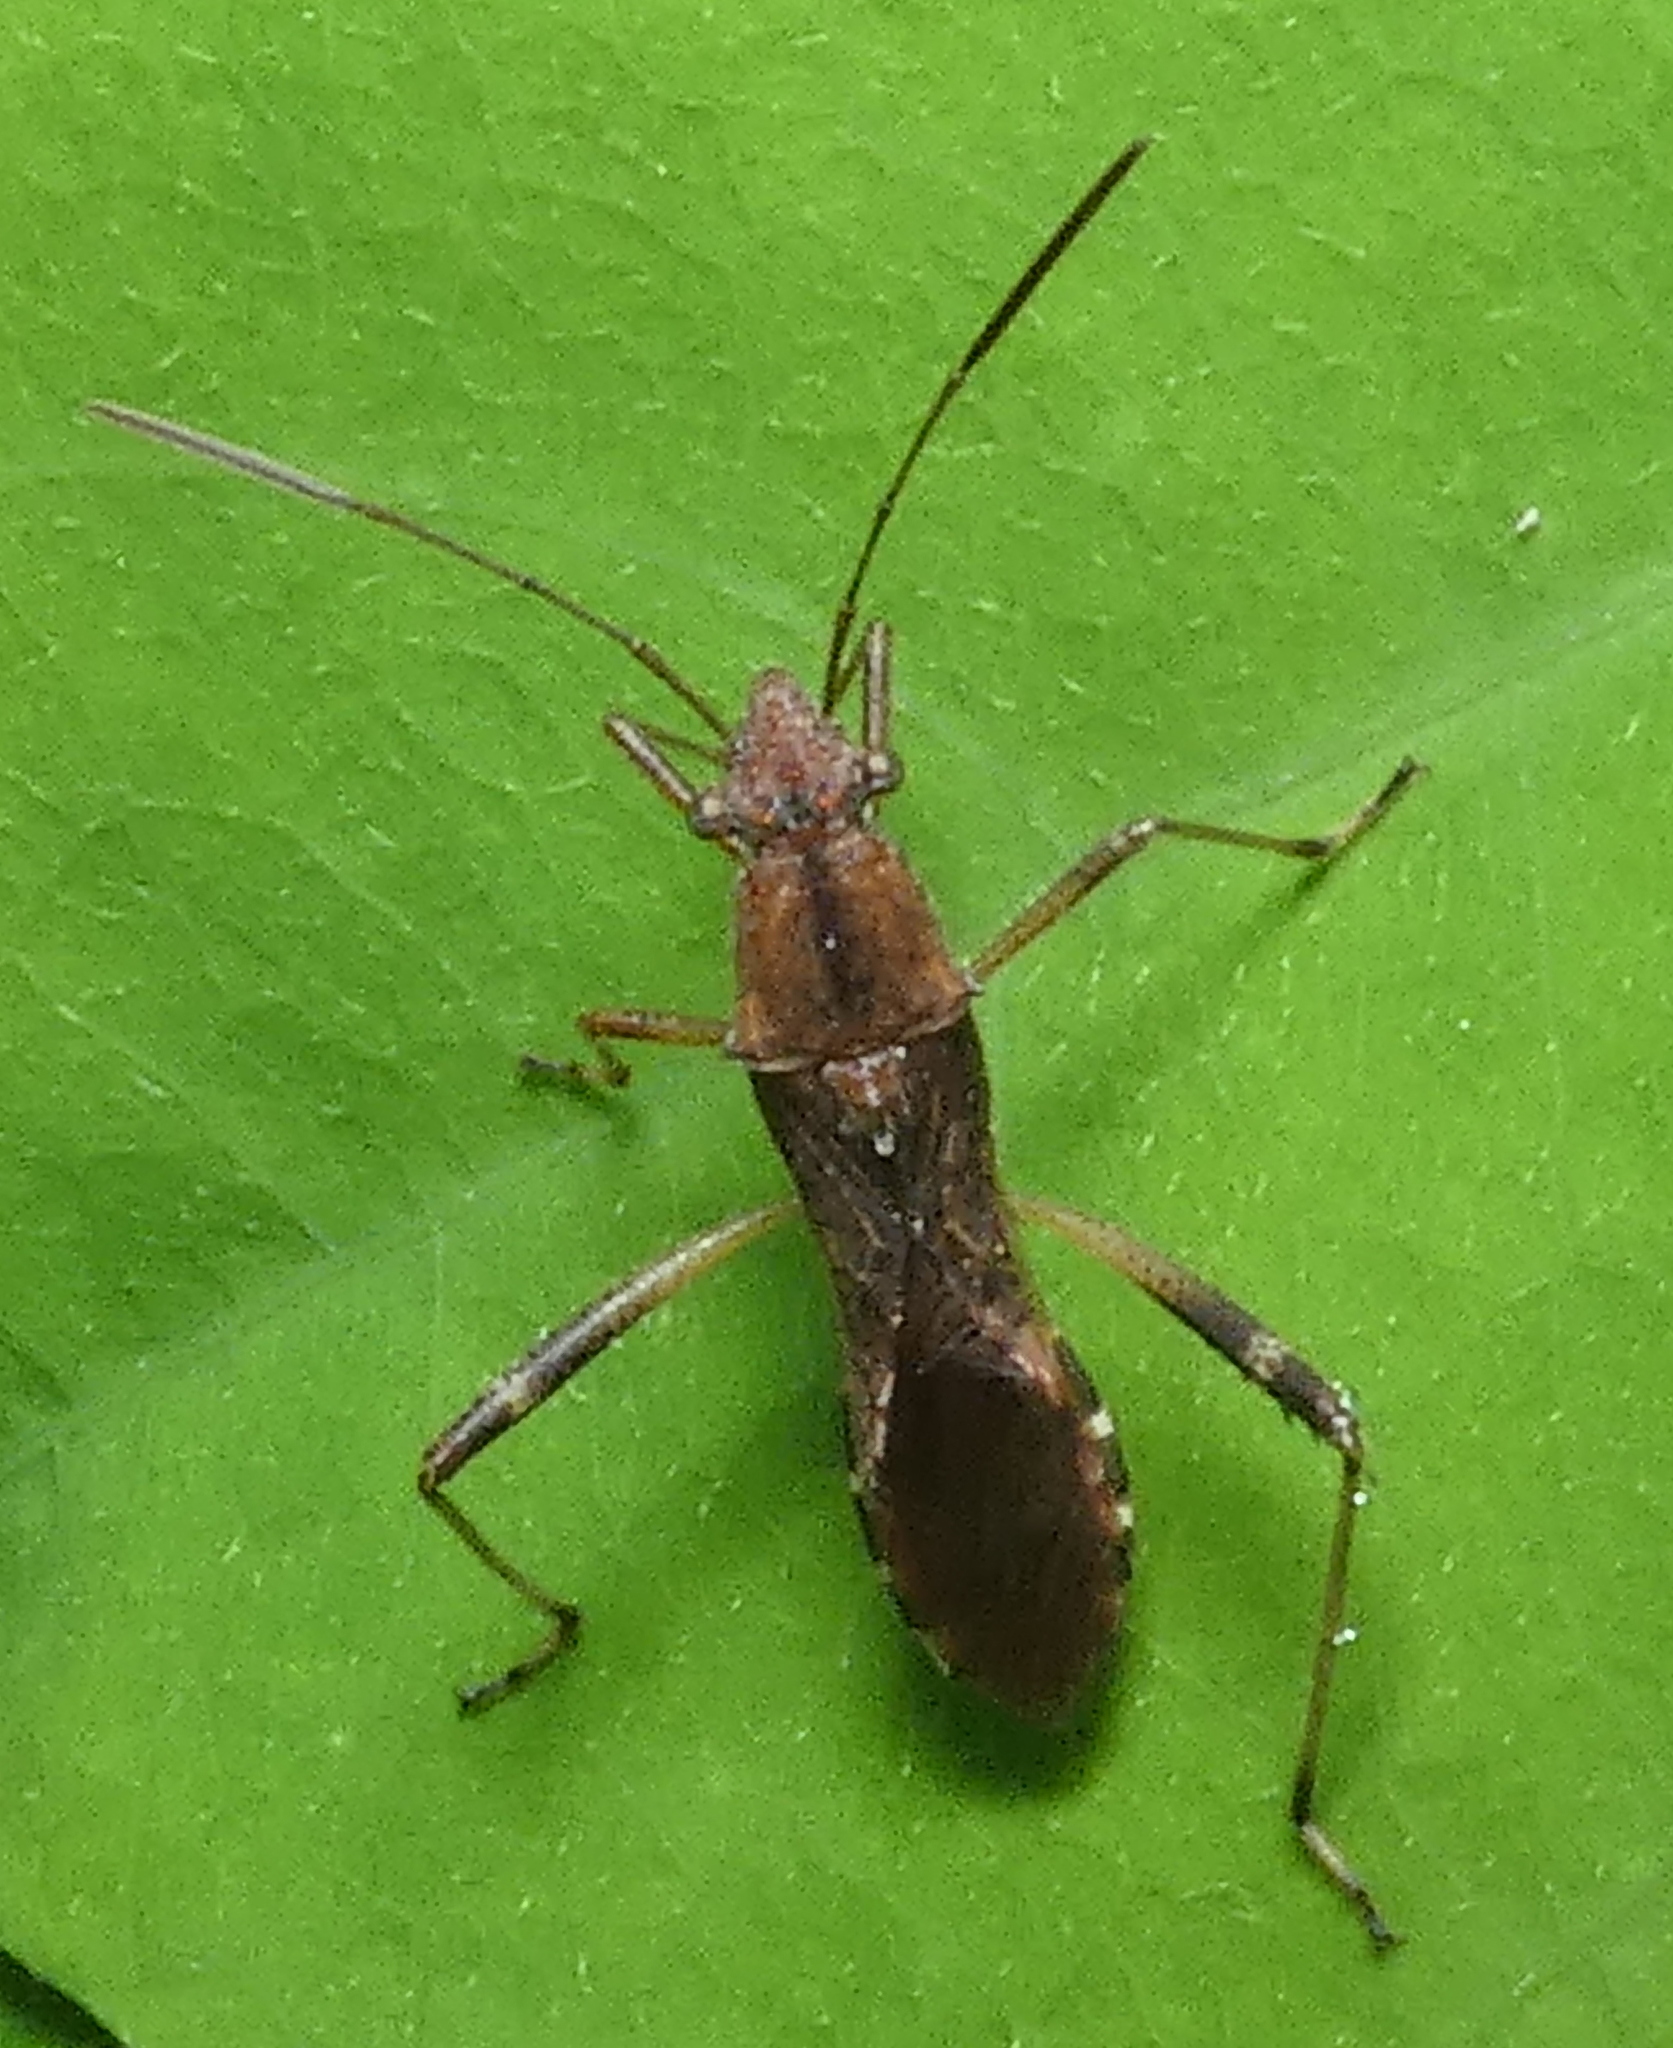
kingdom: Animalia
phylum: Arthropoda
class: Insecta
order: Hemiptera
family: Alydidae
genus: Neomegalotomus
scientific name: Neomegalotomus parvus
